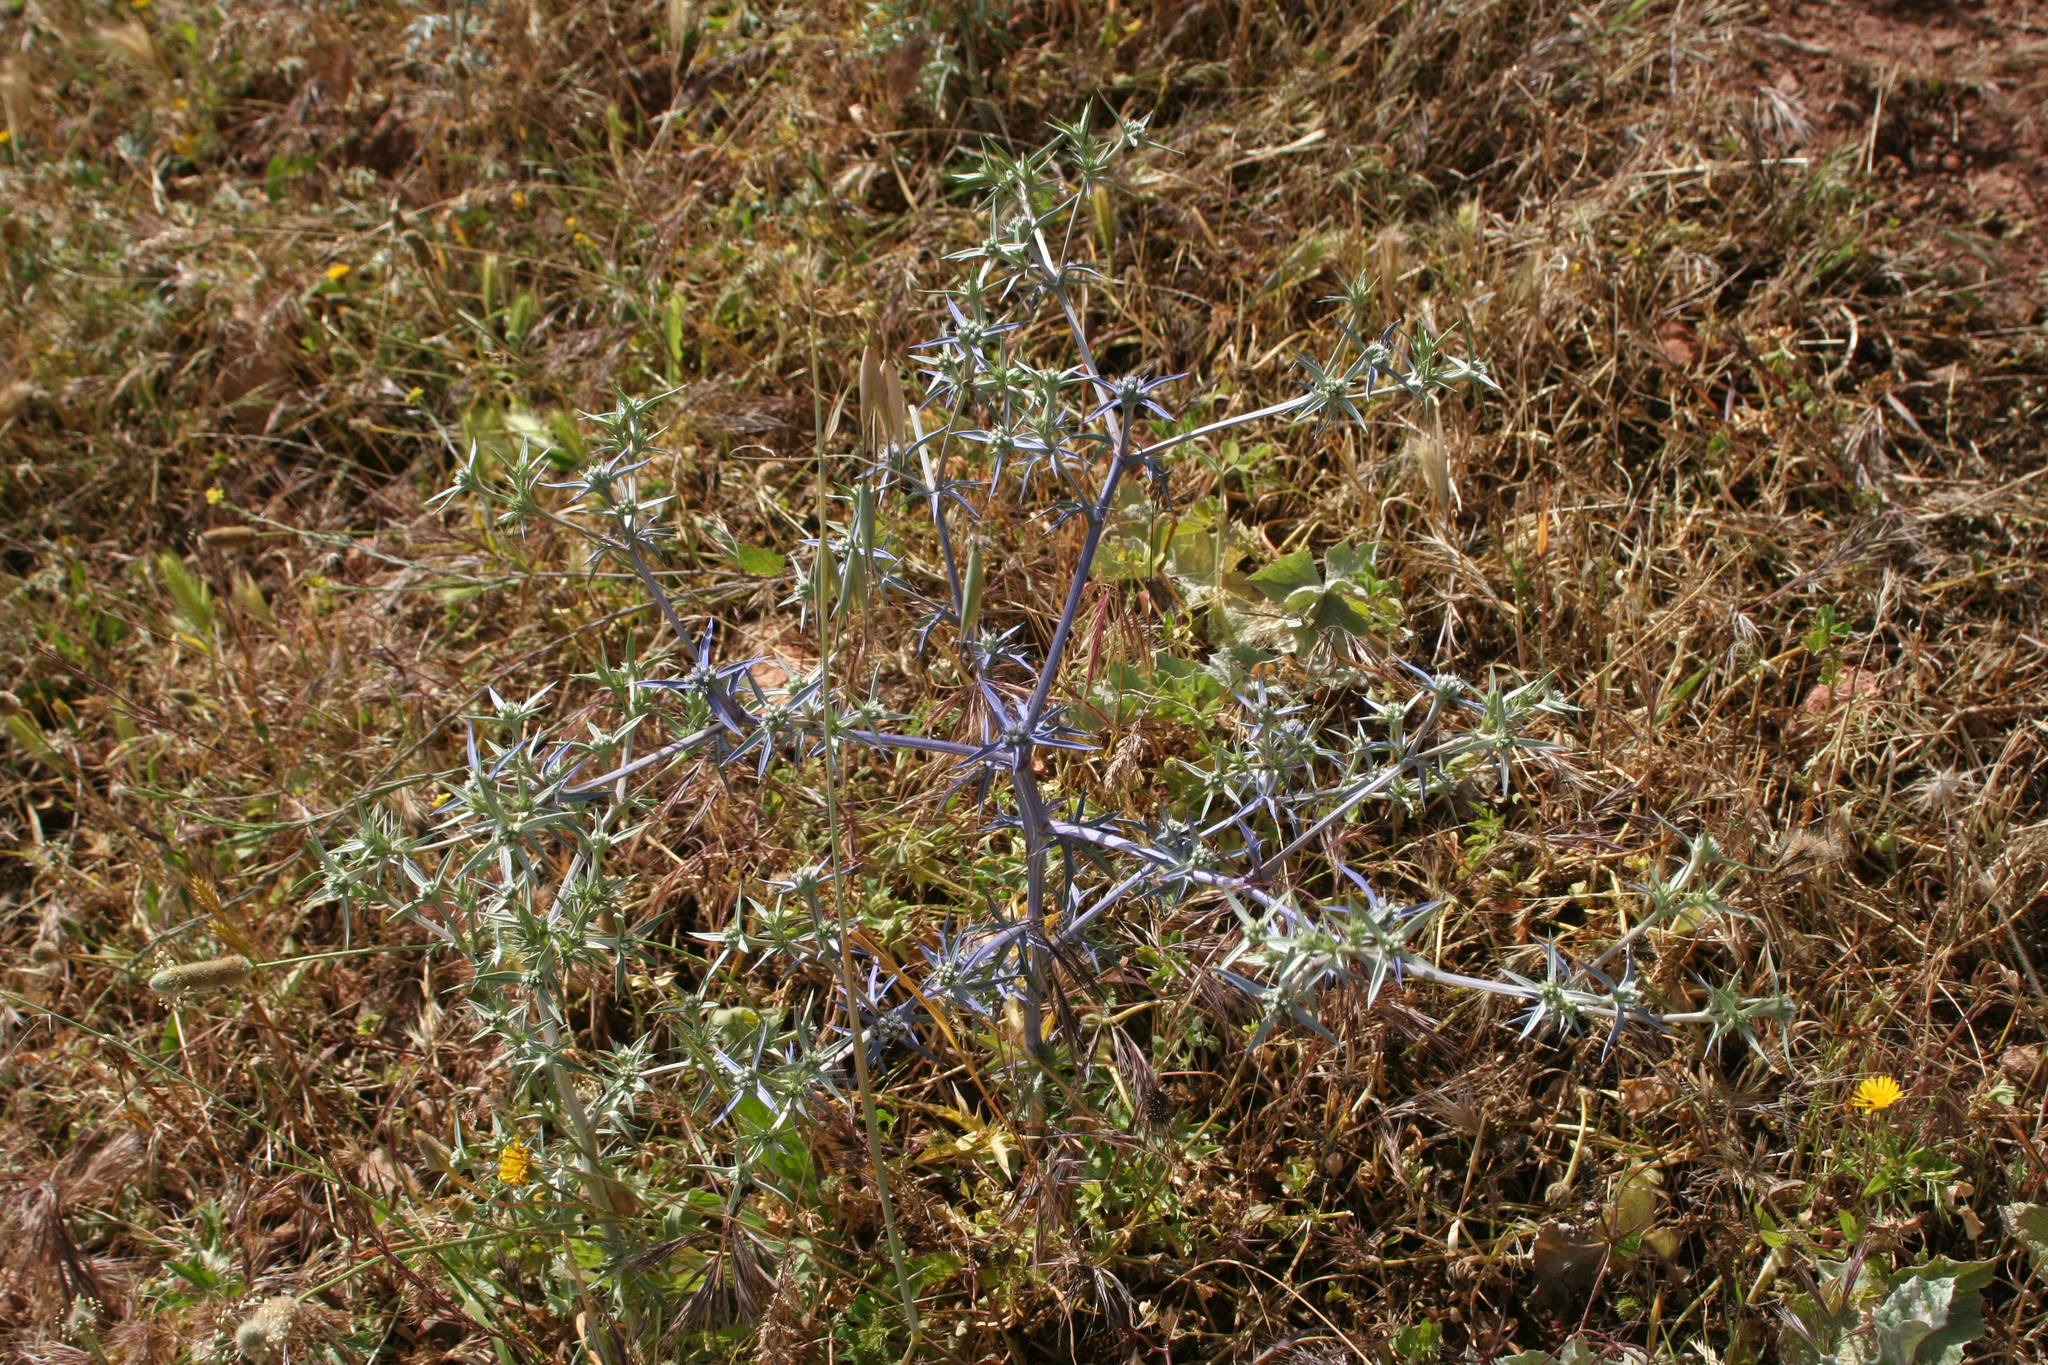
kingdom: Plantae
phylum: Tracheophyta
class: Magnoliopsida
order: Apiales
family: Apiaceae
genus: Eryngium
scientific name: Eryngium triquetrum
